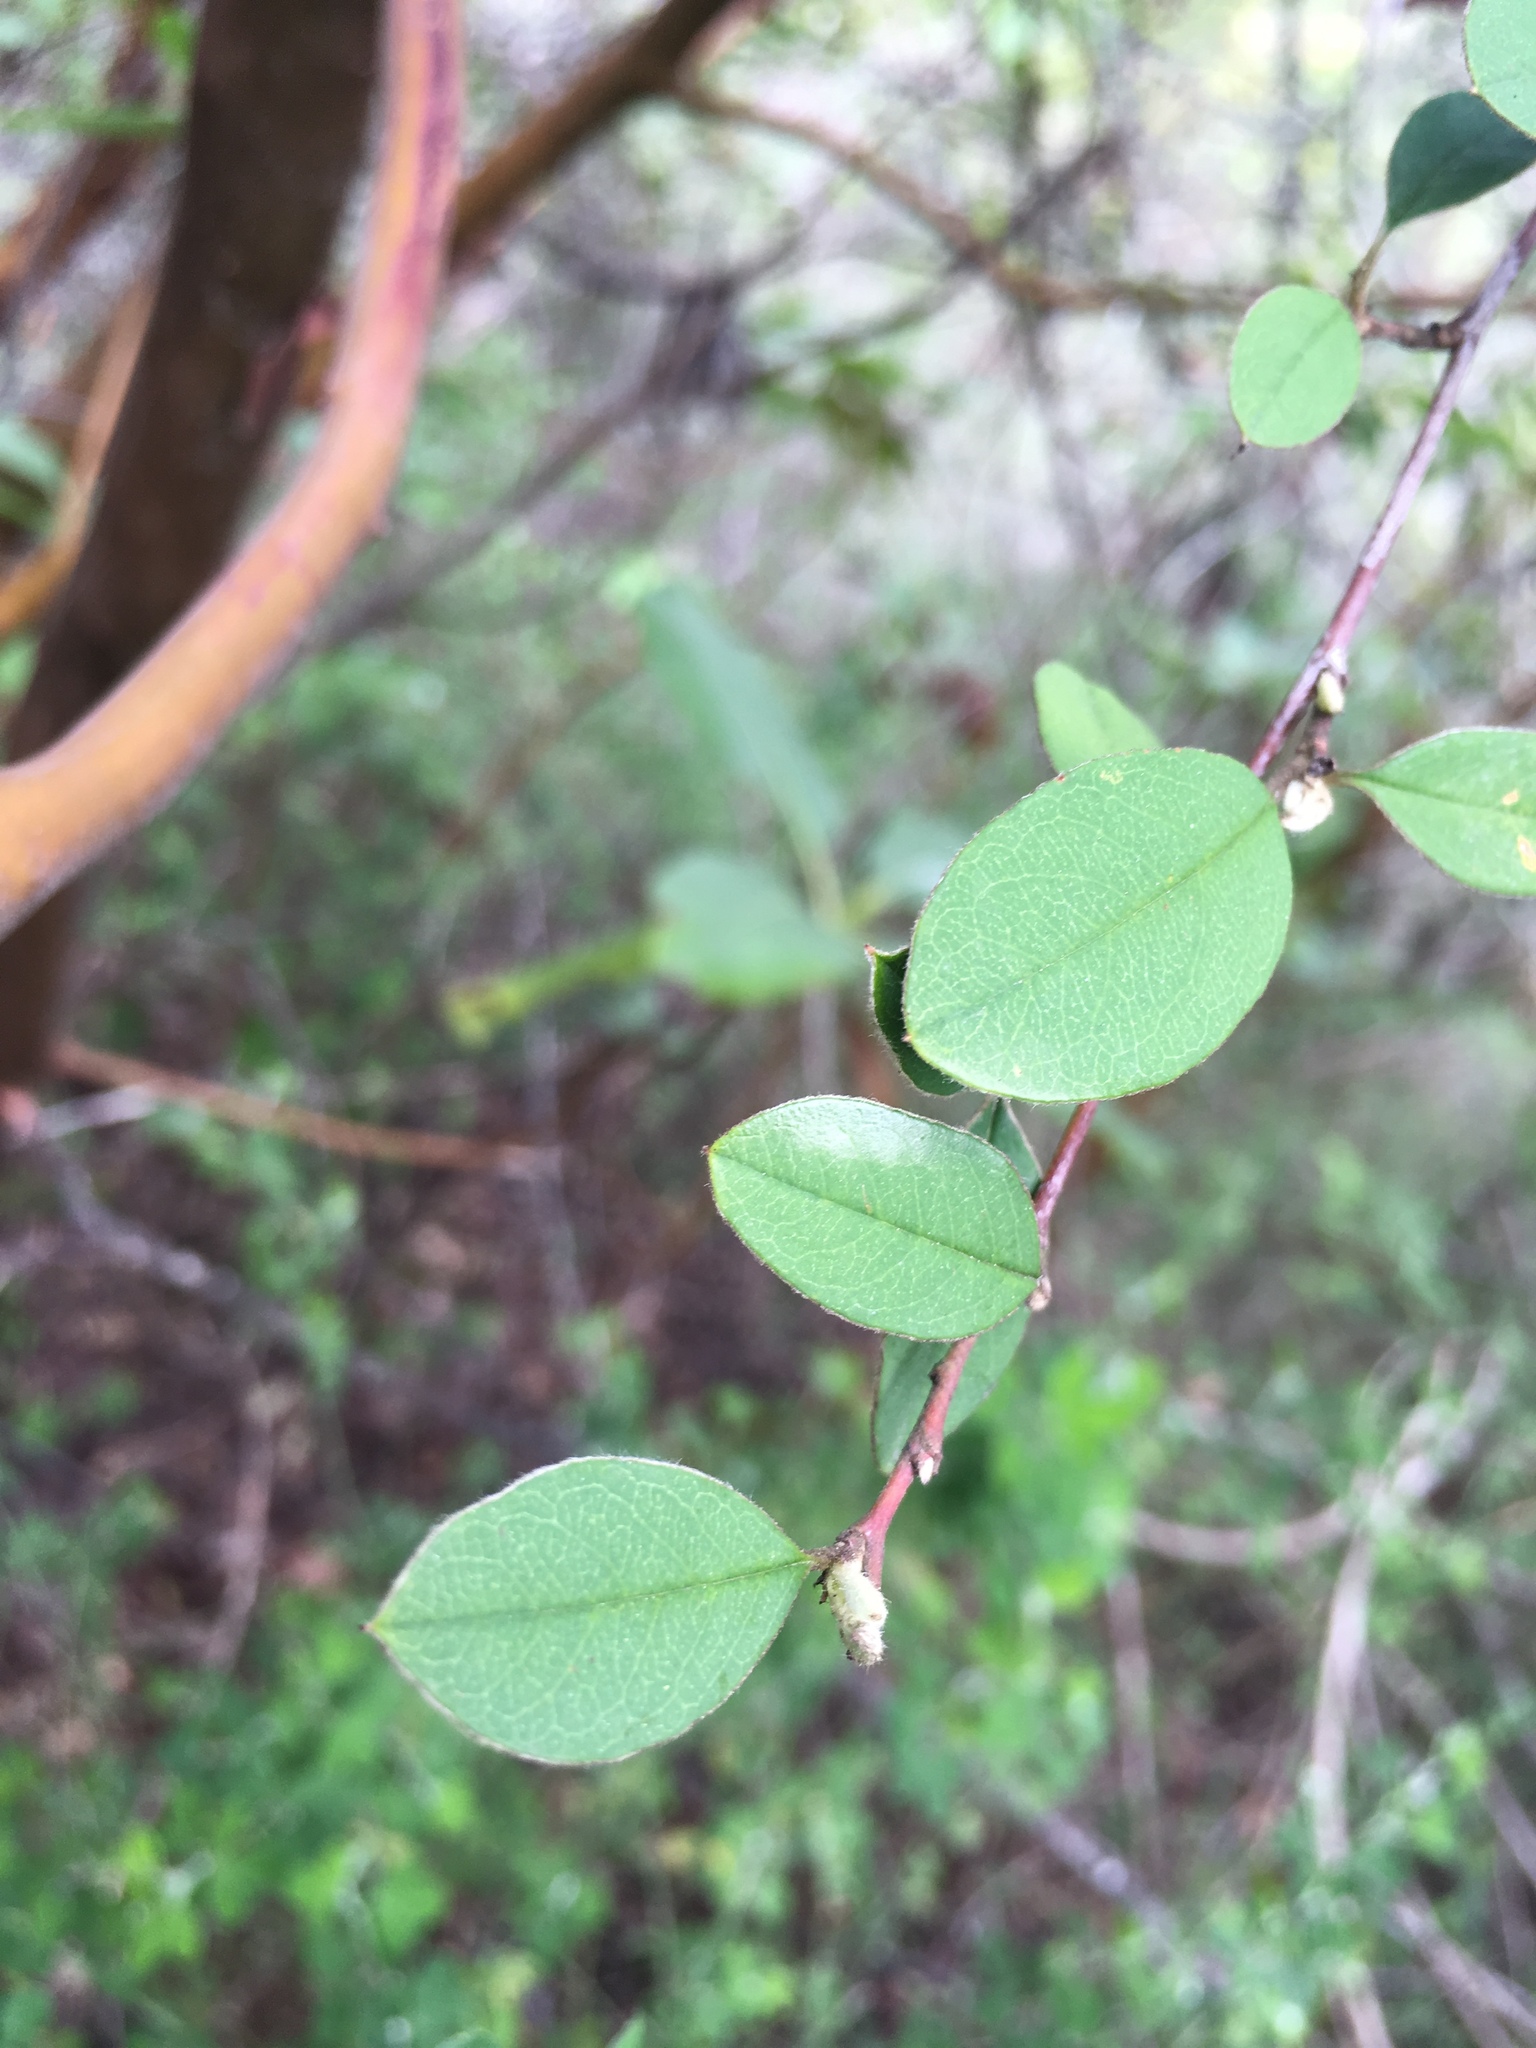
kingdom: Plantae
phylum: Tracheophyta
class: Magnoliopsida
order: Rosales
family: Rosaceae
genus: Cotoneaster
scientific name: Cotoneaster pannosus
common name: Silverleaf cotoneaster
